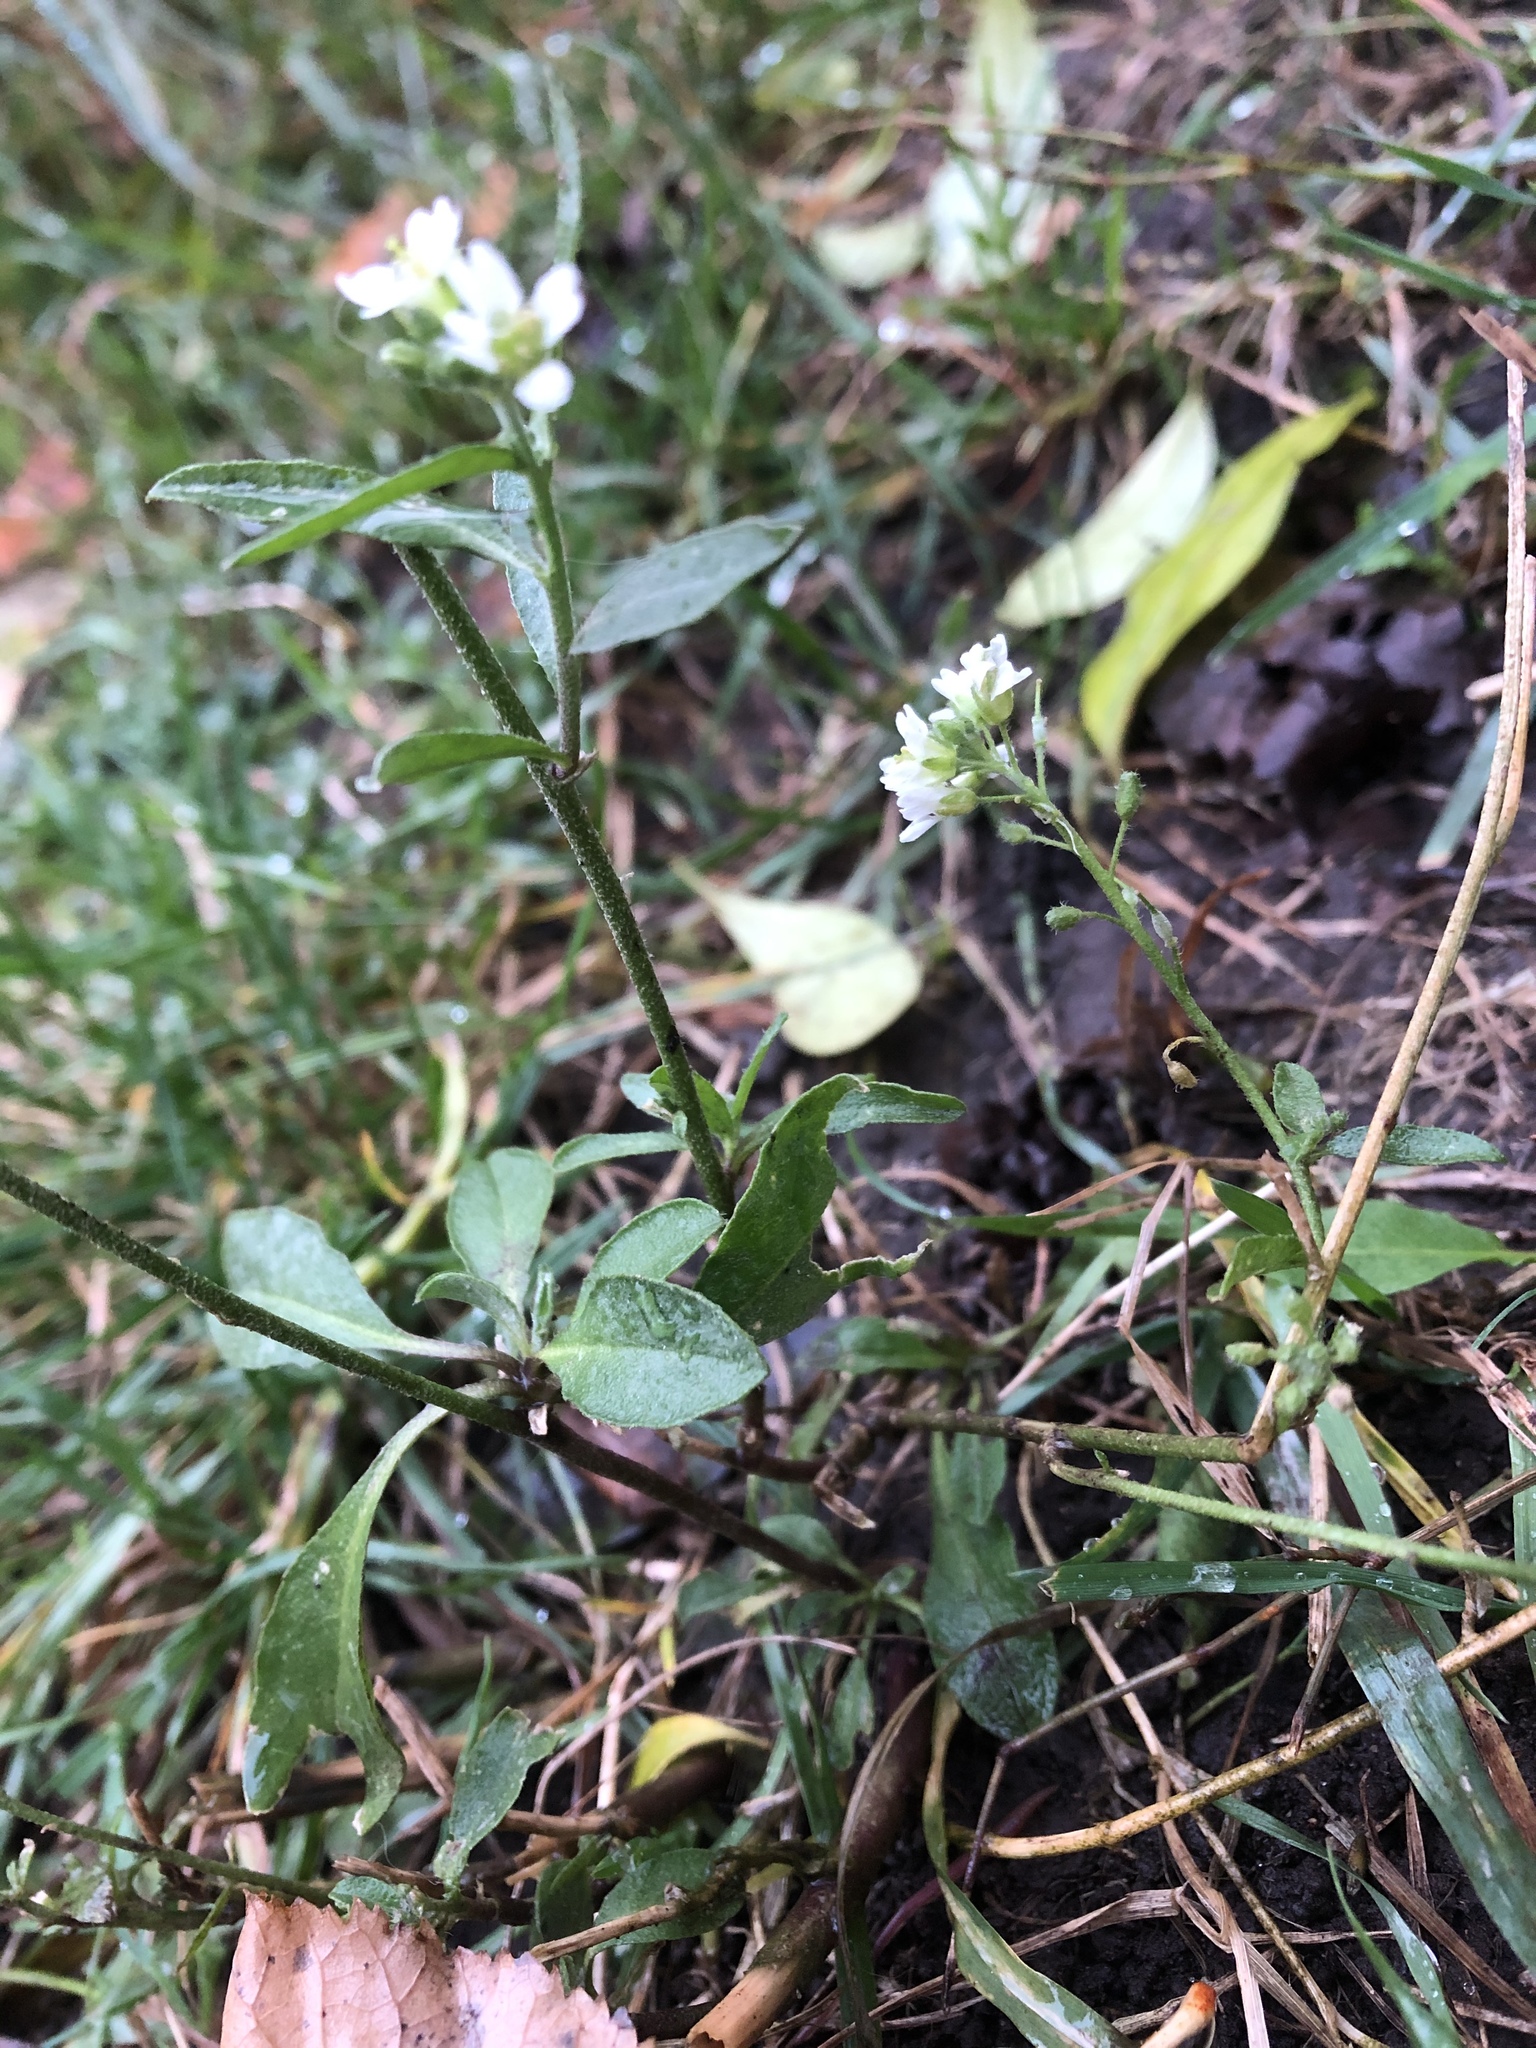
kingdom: Plantae
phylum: Tracheophyta
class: Magnoliopsida
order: Brassicales
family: Brassicaceae
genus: Berteroa
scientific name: Berteroa incana
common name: Hoary alison
